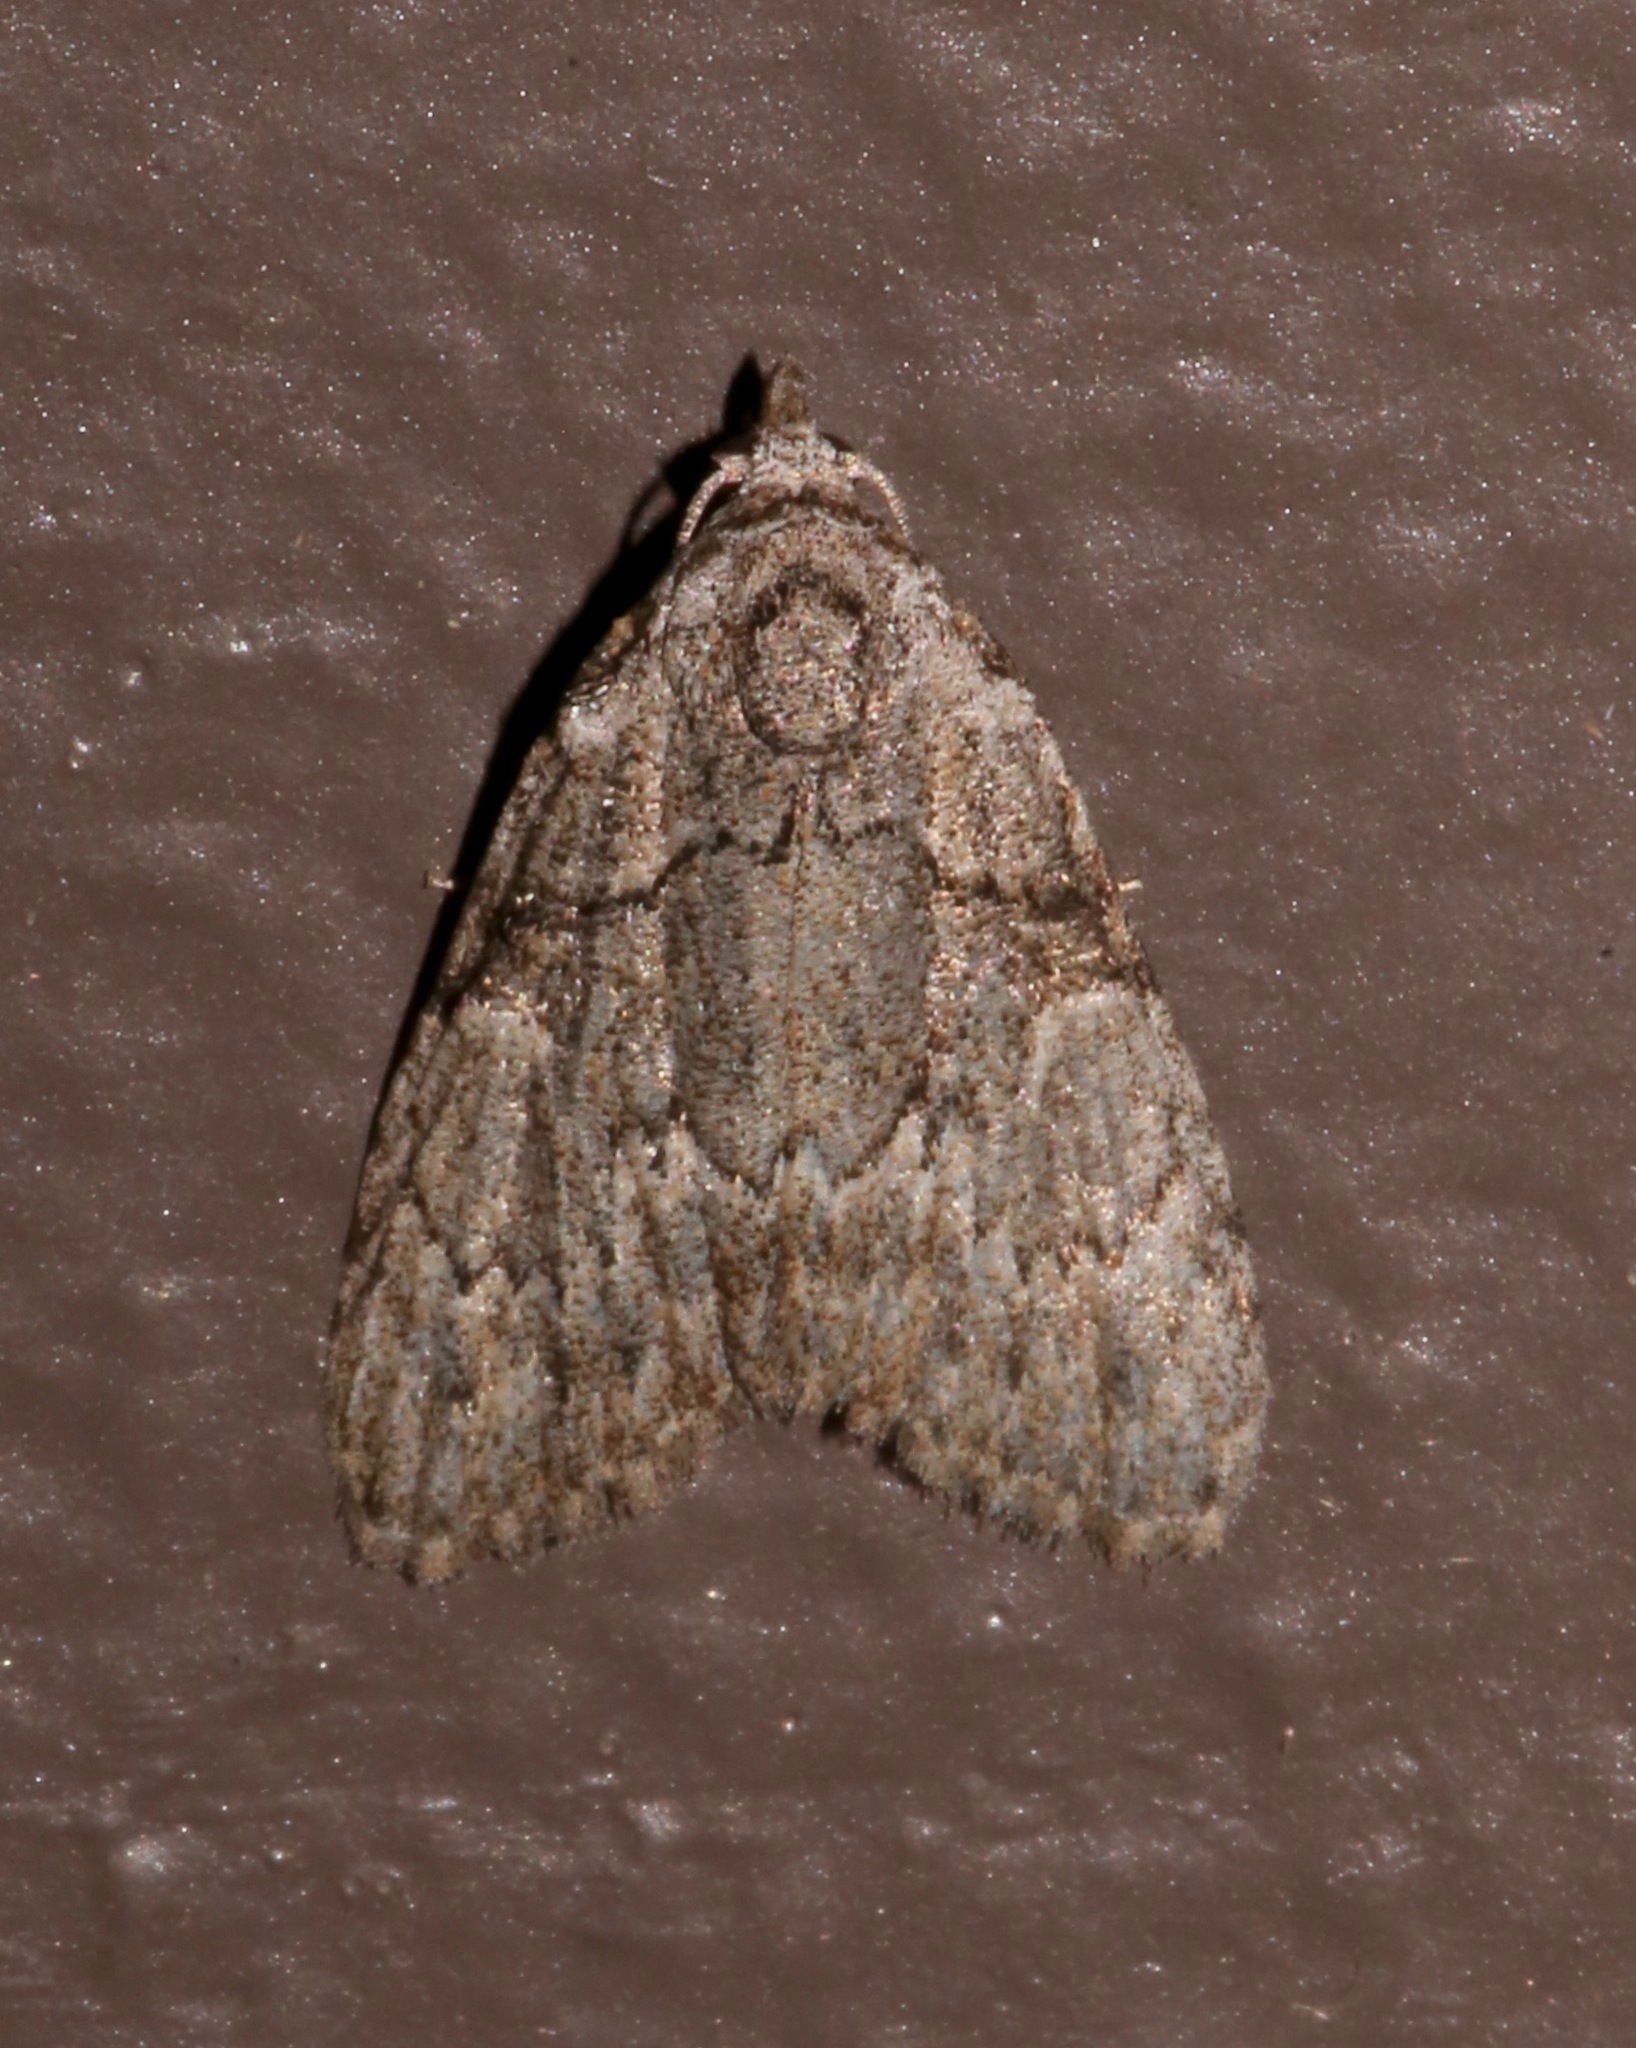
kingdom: Animalia
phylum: Arthropoda
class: Insecta
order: Lepidoptera
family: Nolidae
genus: Meganola
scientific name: Meganola dentata
